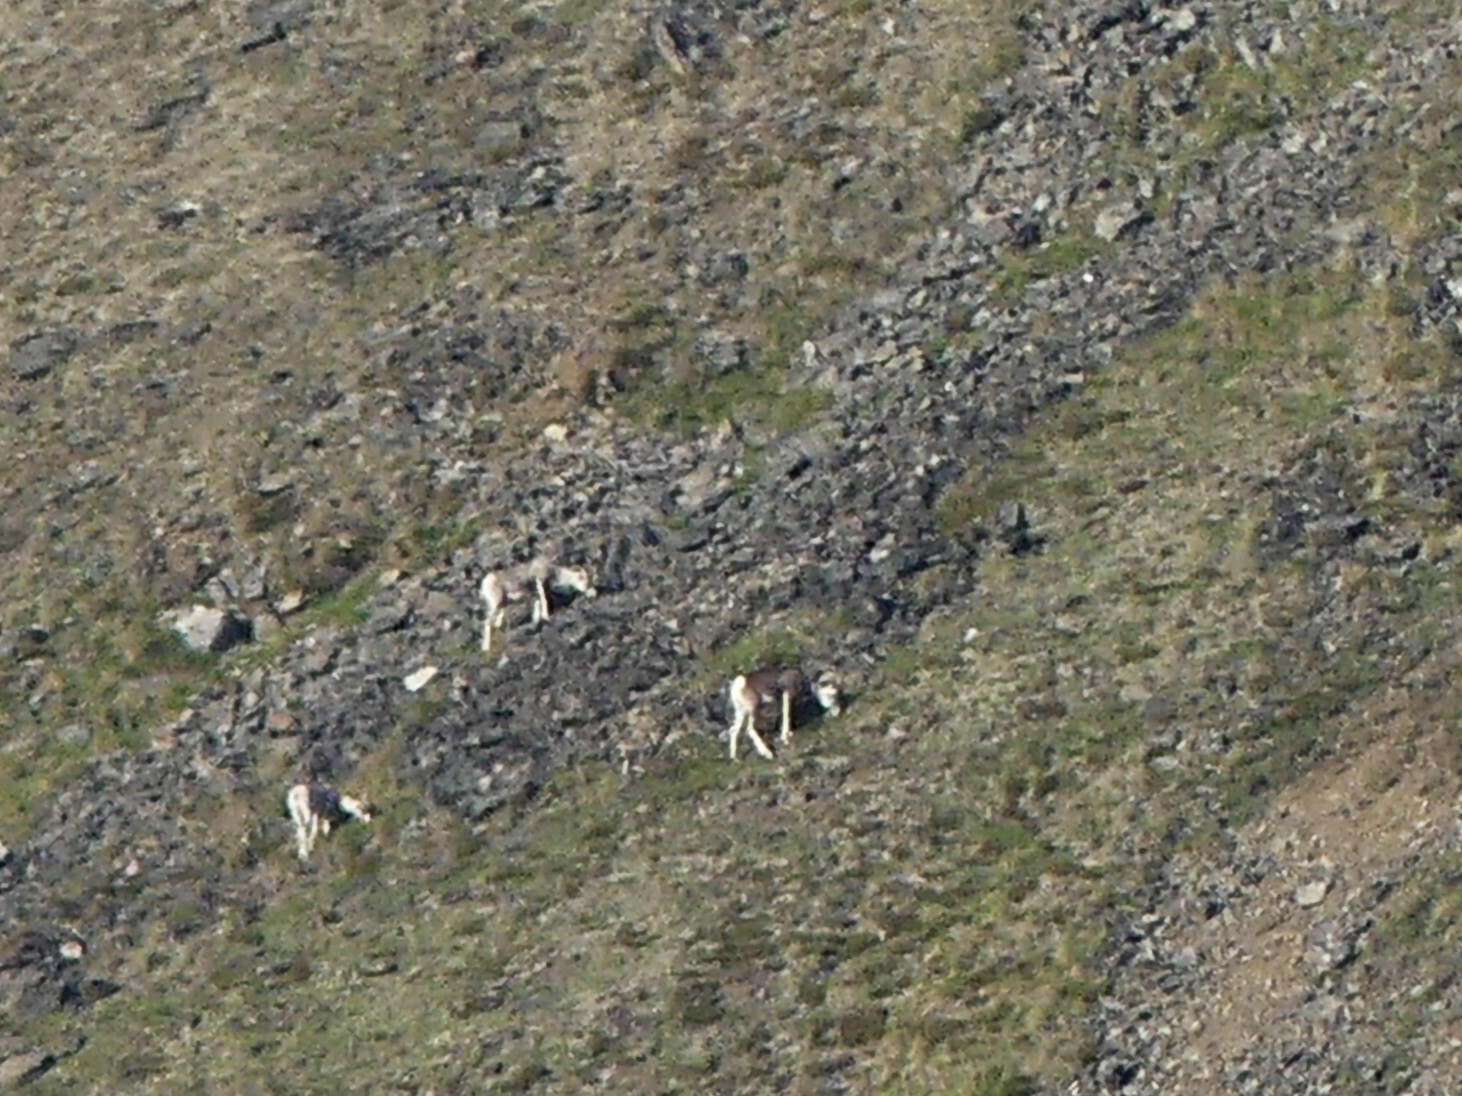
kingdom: Animalia
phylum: Chordata
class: Mammalia
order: Artiodactyla
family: Bovidae
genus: Ovis
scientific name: Ovis dalli
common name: Dall's sheep
